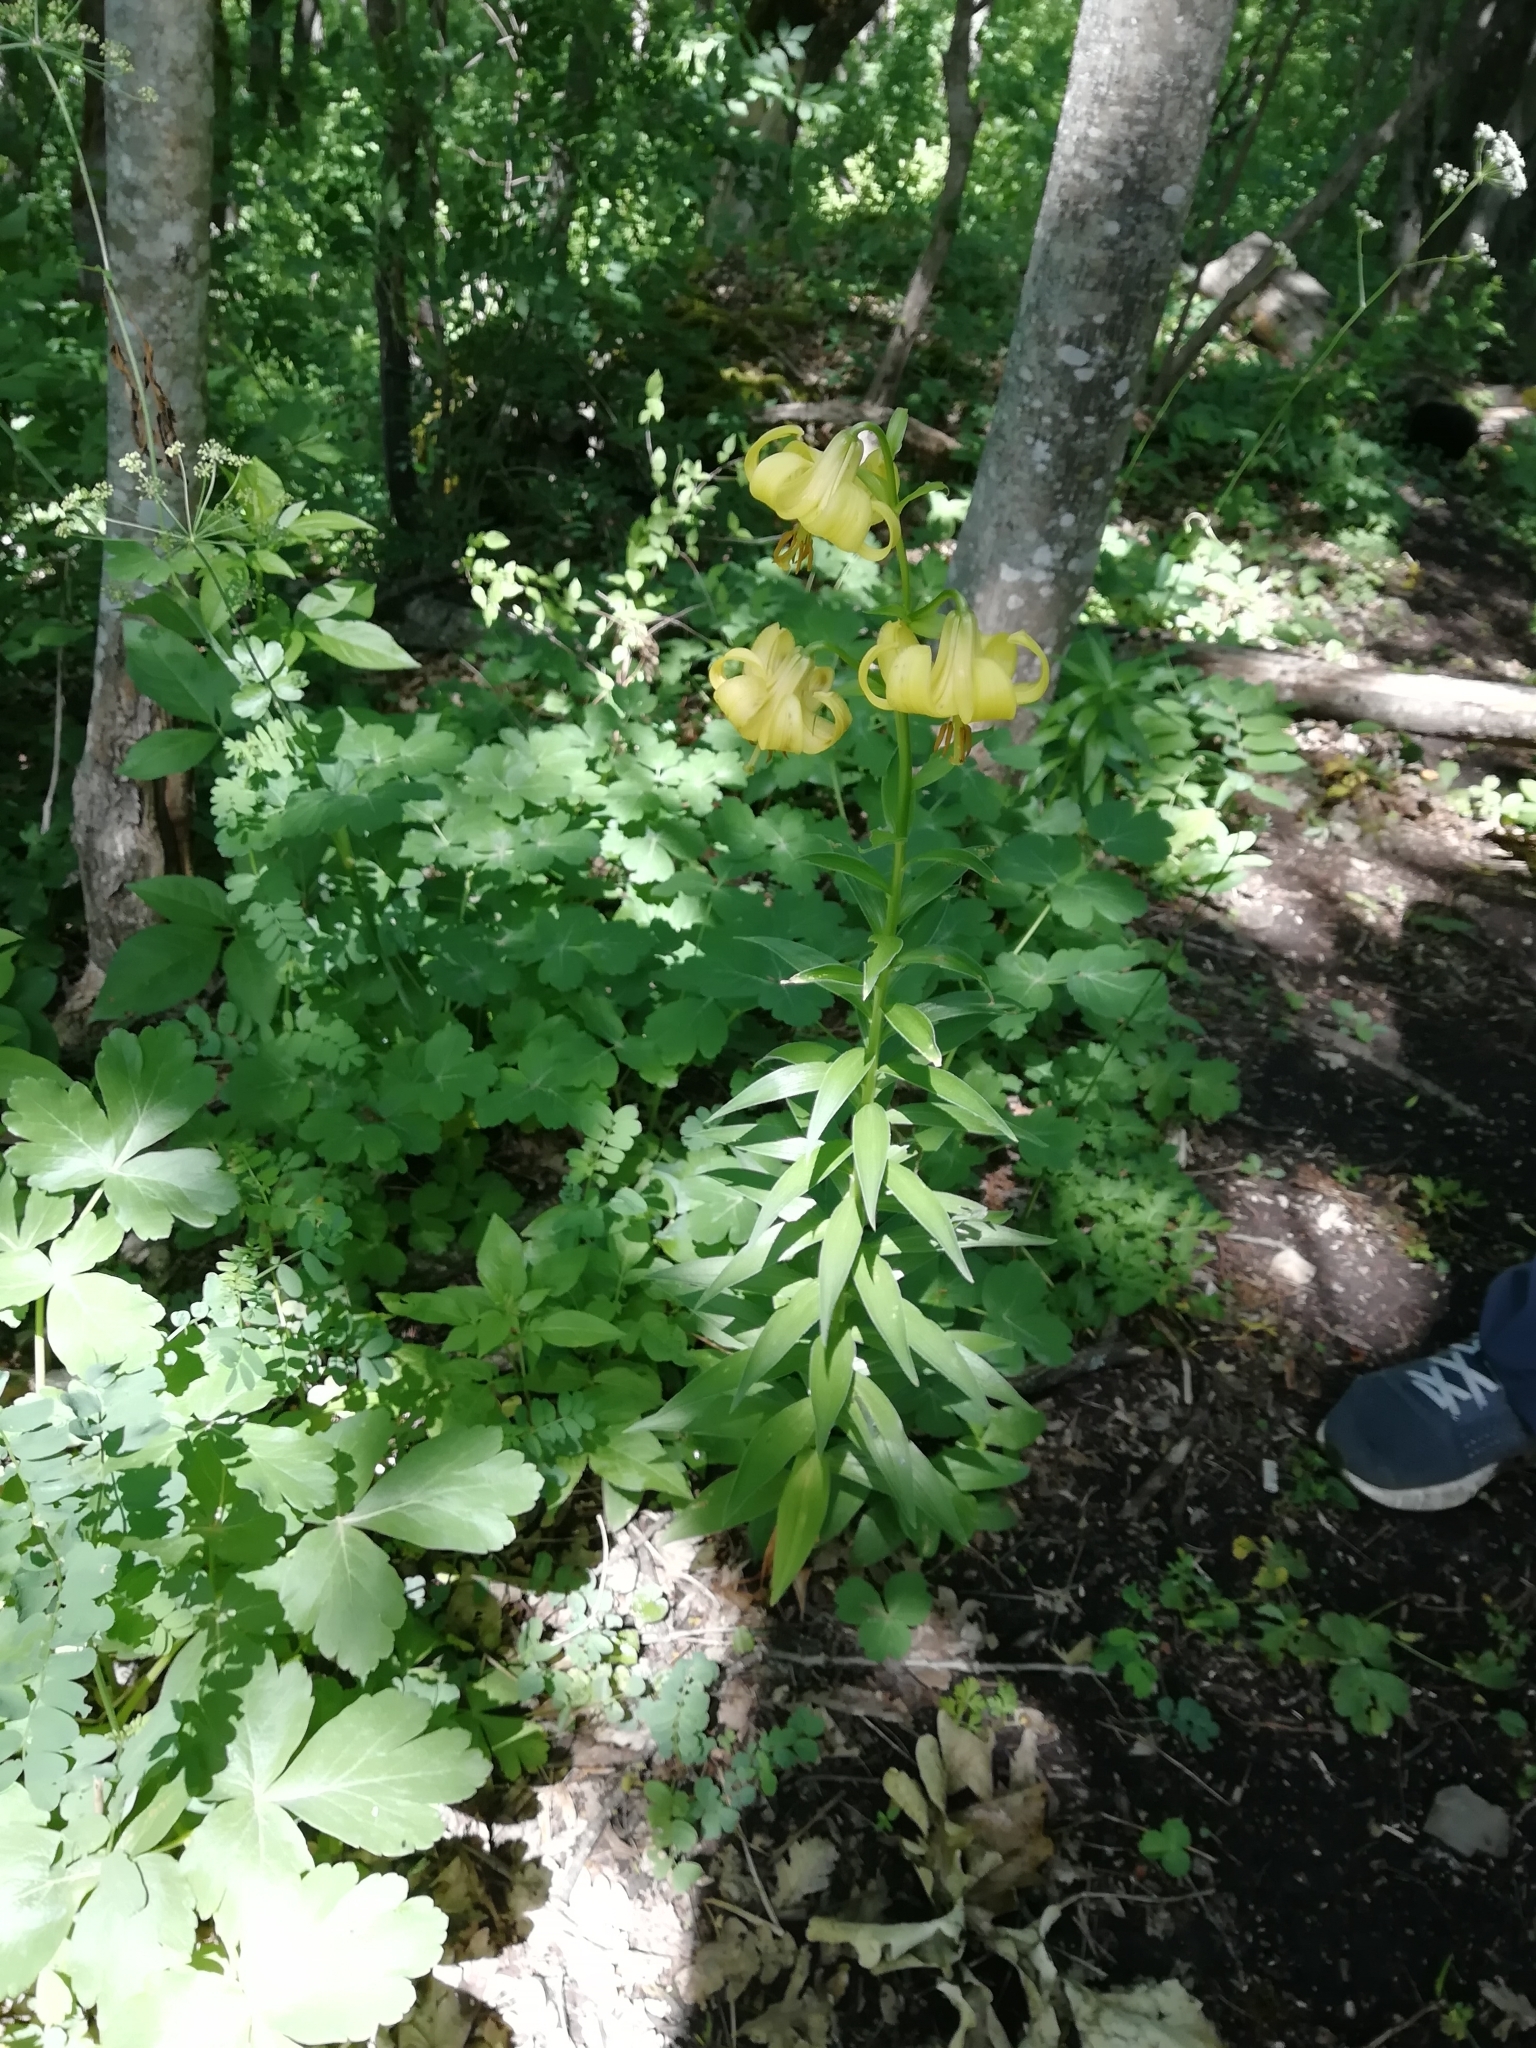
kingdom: Plantae
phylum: Tracheophyta
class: Liliopsida
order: Liliales
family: Liliaceae
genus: Lilium
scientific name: Lilium monadelphum
